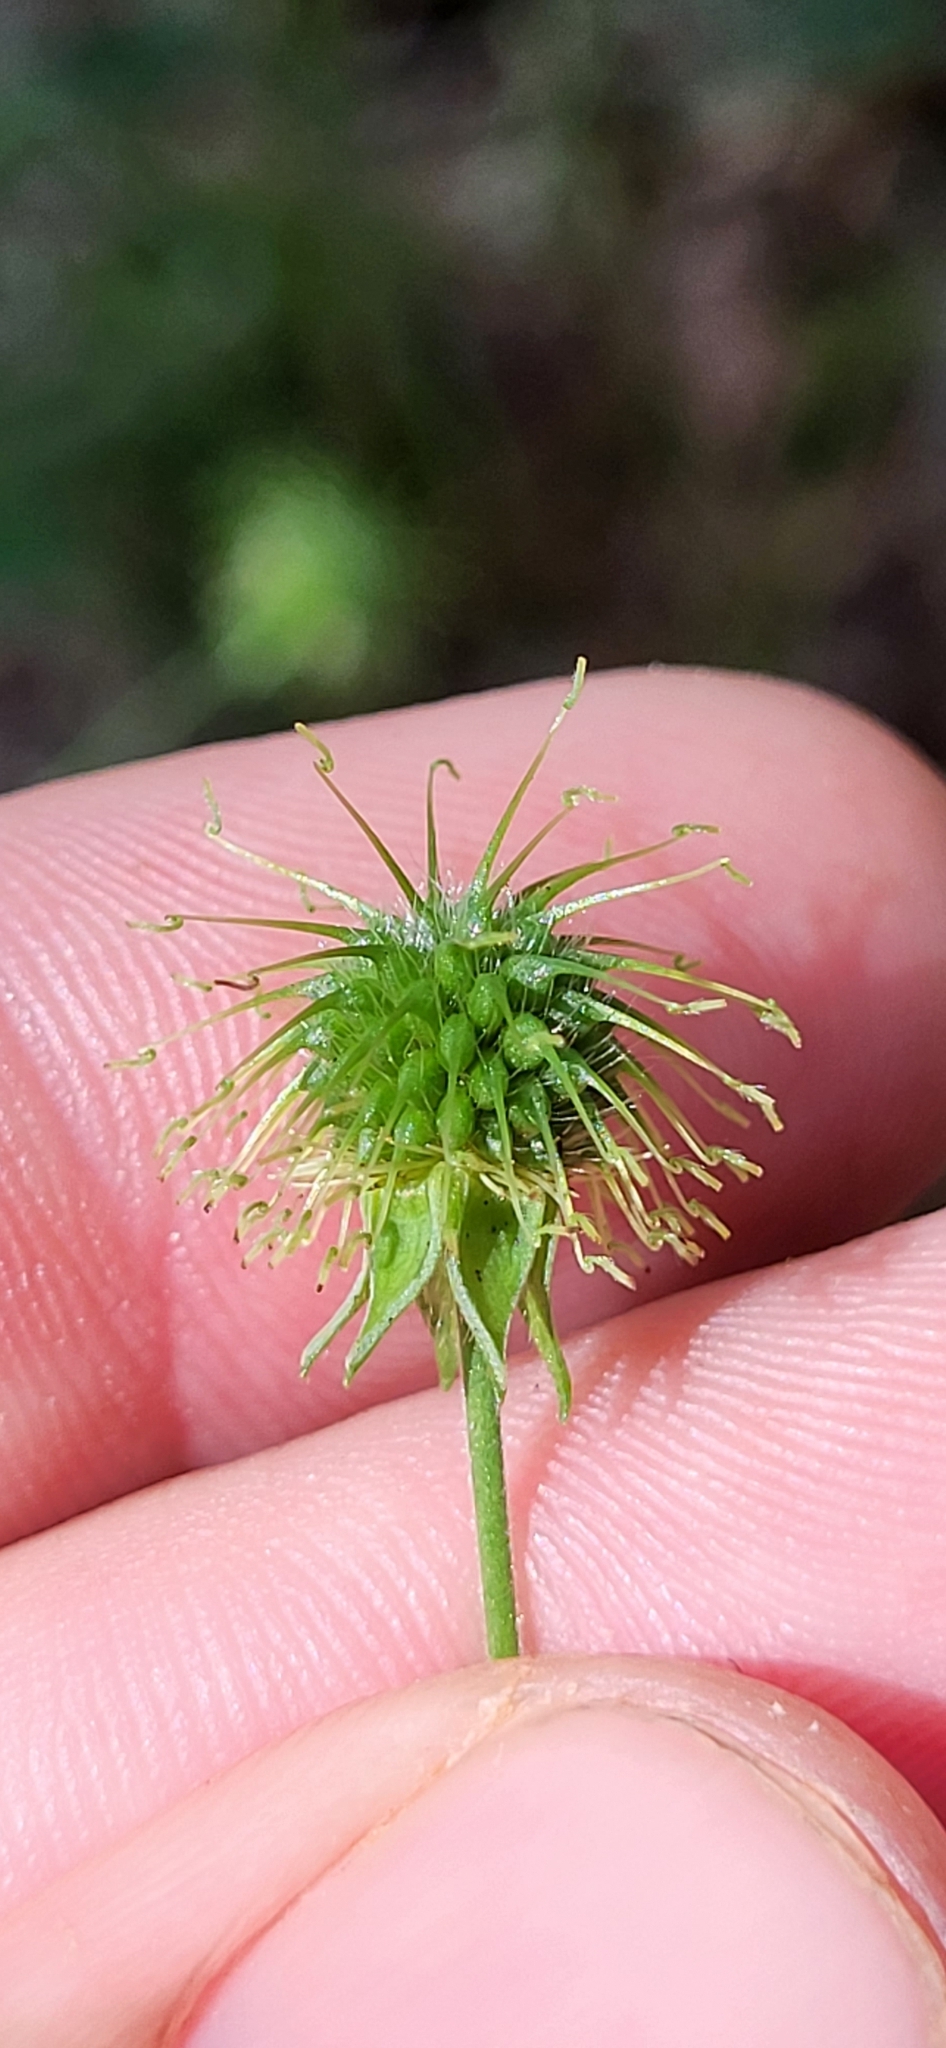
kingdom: Plantae
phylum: Tracheophyta
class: Magnoliopsida
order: Rosales
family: Rosaceae
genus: Geum
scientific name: Geum canadense
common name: White avens
